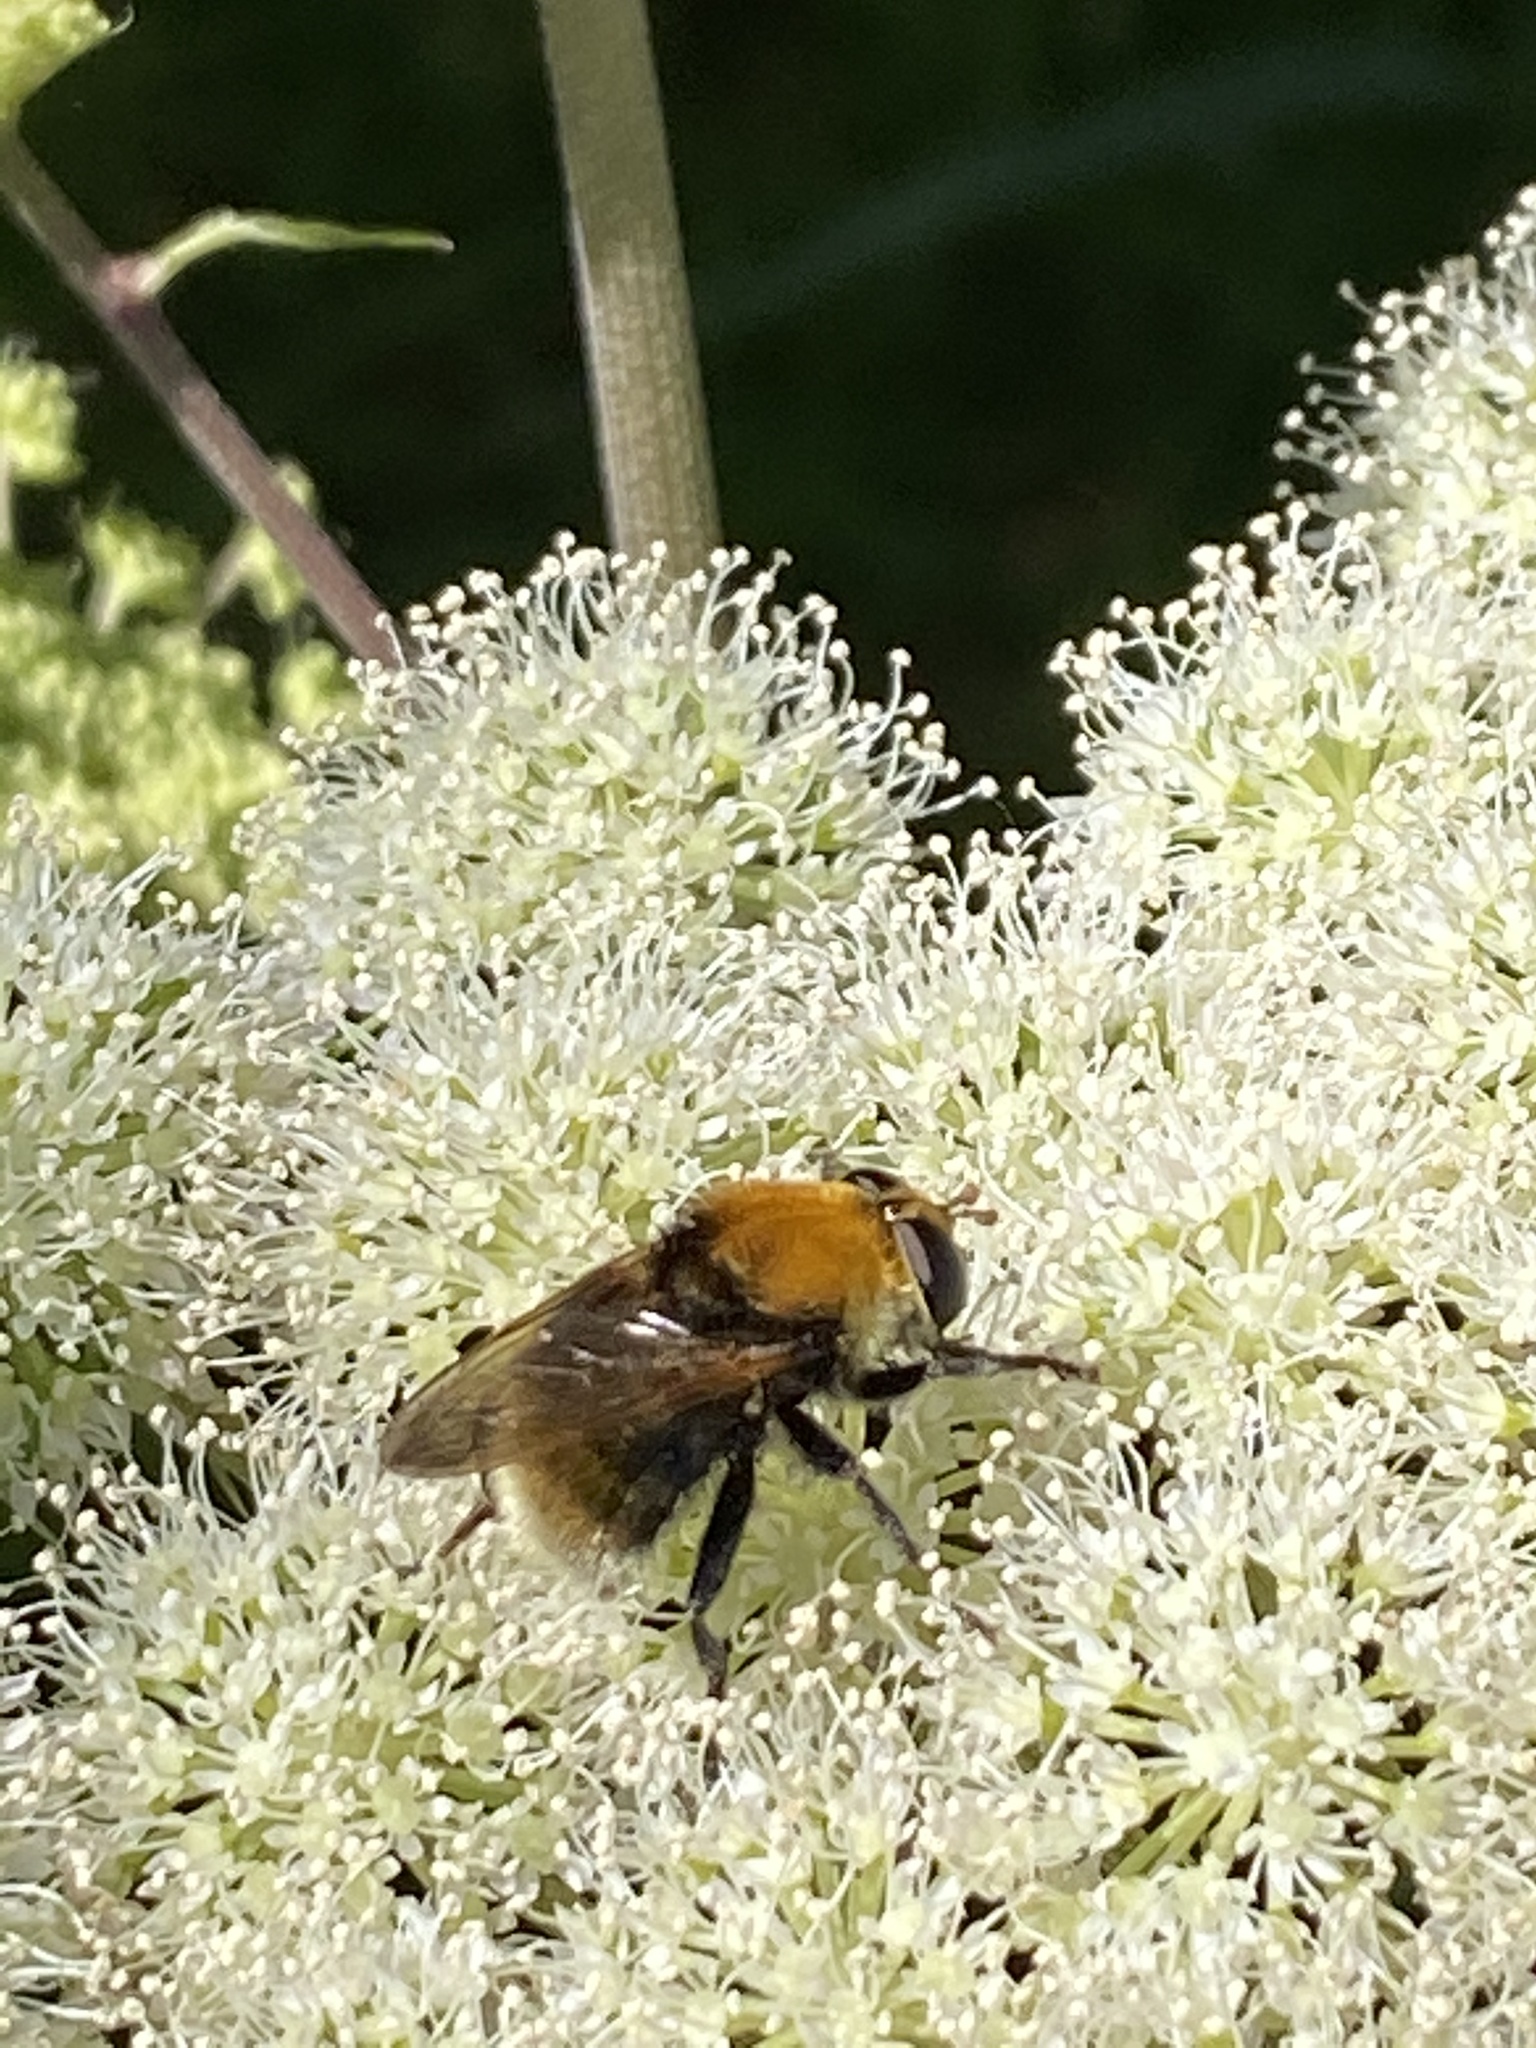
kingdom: Animalia
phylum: Arthropoda
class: Insecta
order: Diptera
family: Syrphidae
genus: Criorhina
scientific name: Criorhina berberina
